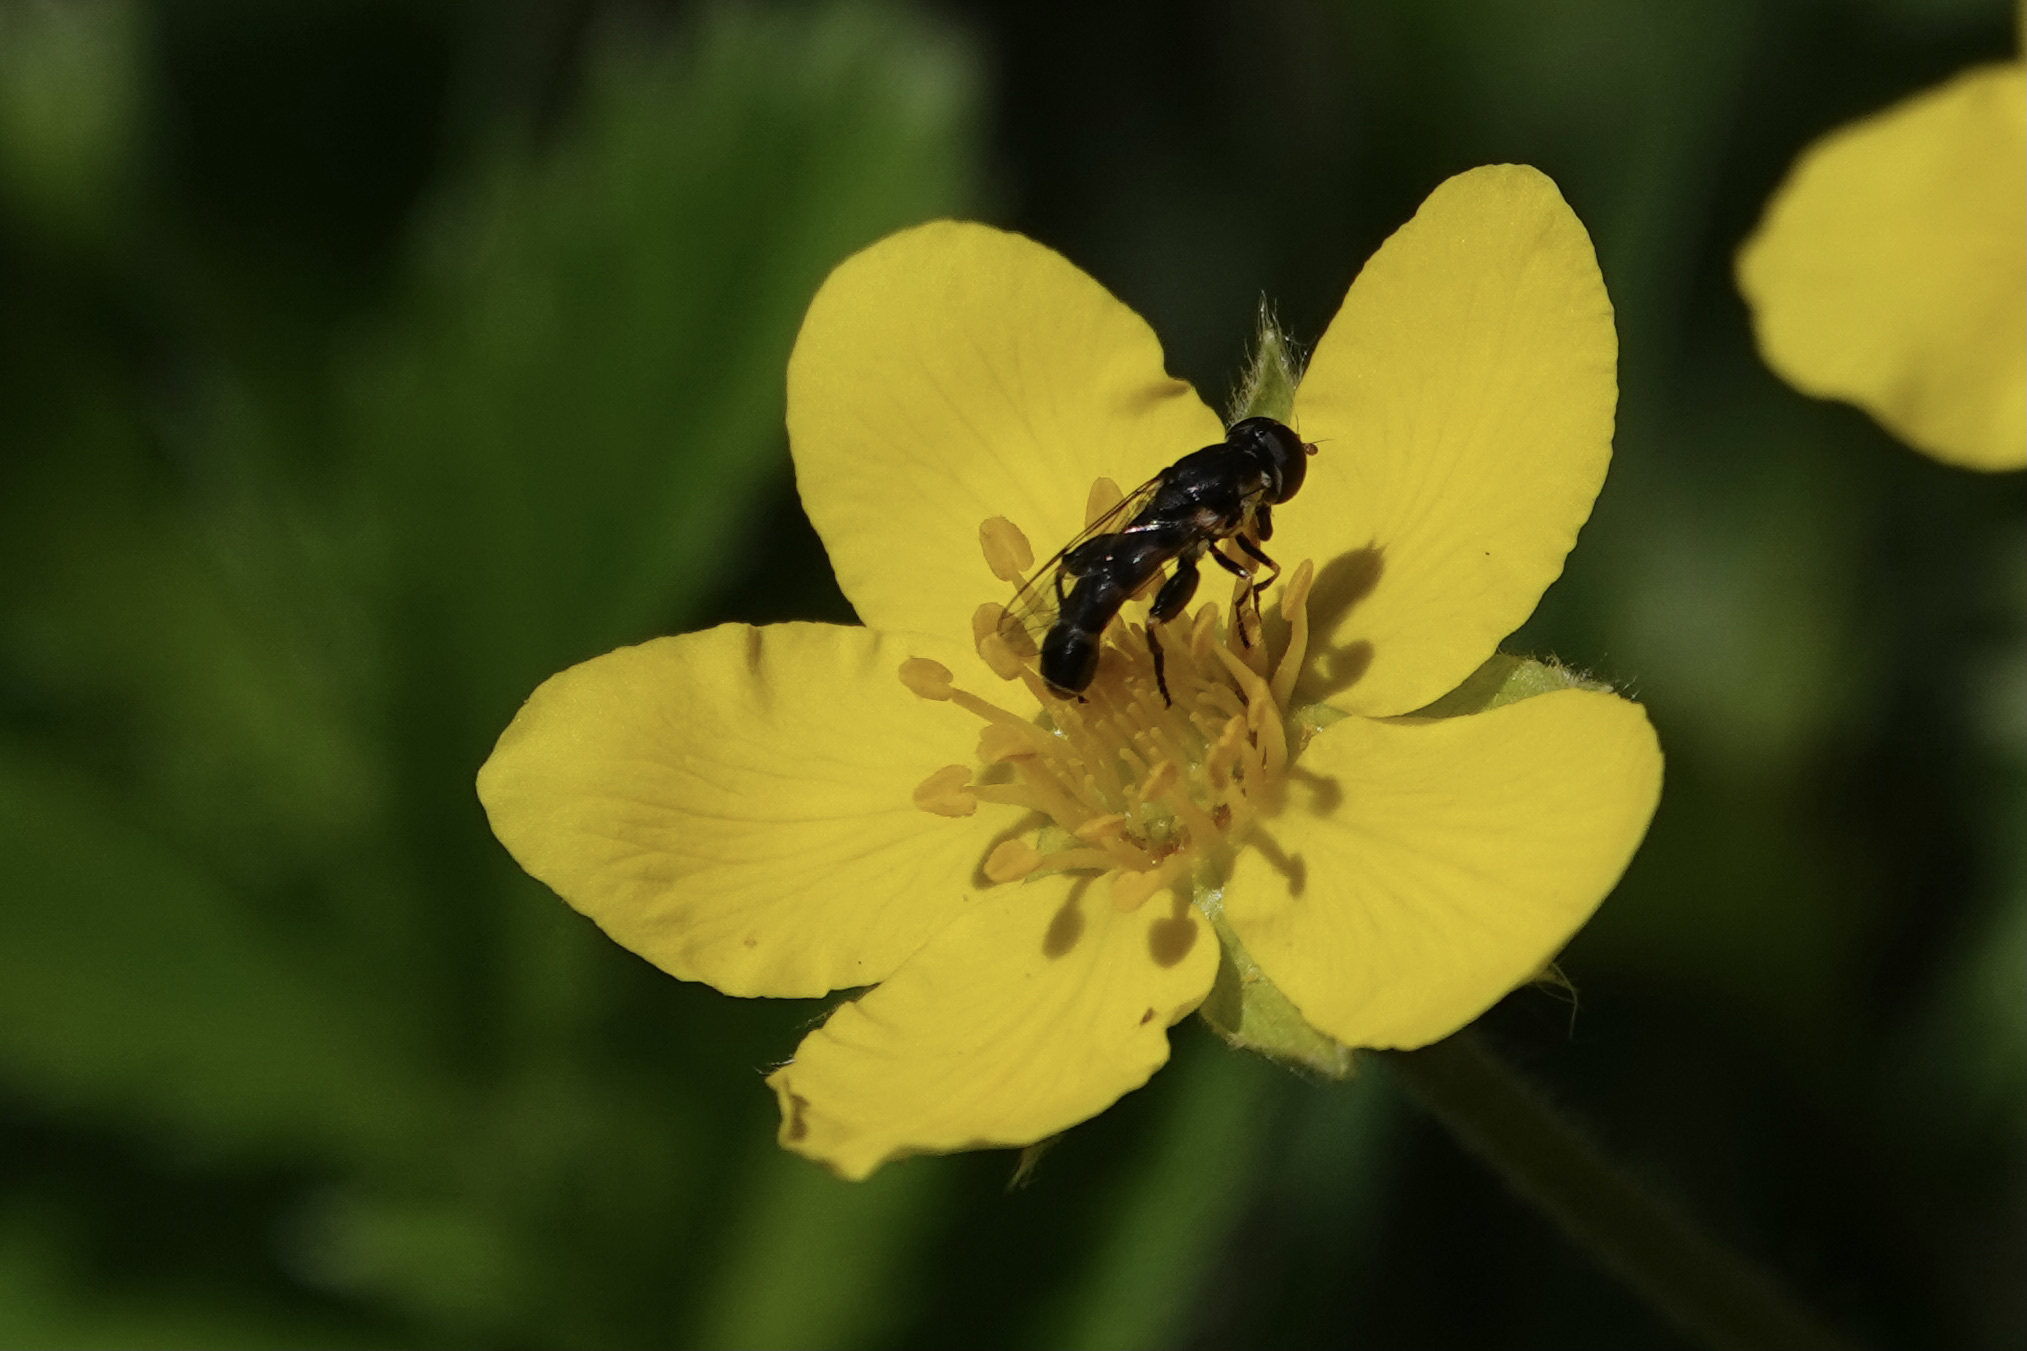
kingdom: Animalia
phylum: Arthropoda
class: Insecta
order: Diptera
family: Syrphidae
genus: Syritta
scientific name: Syritta pipiens
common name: Hover fly
